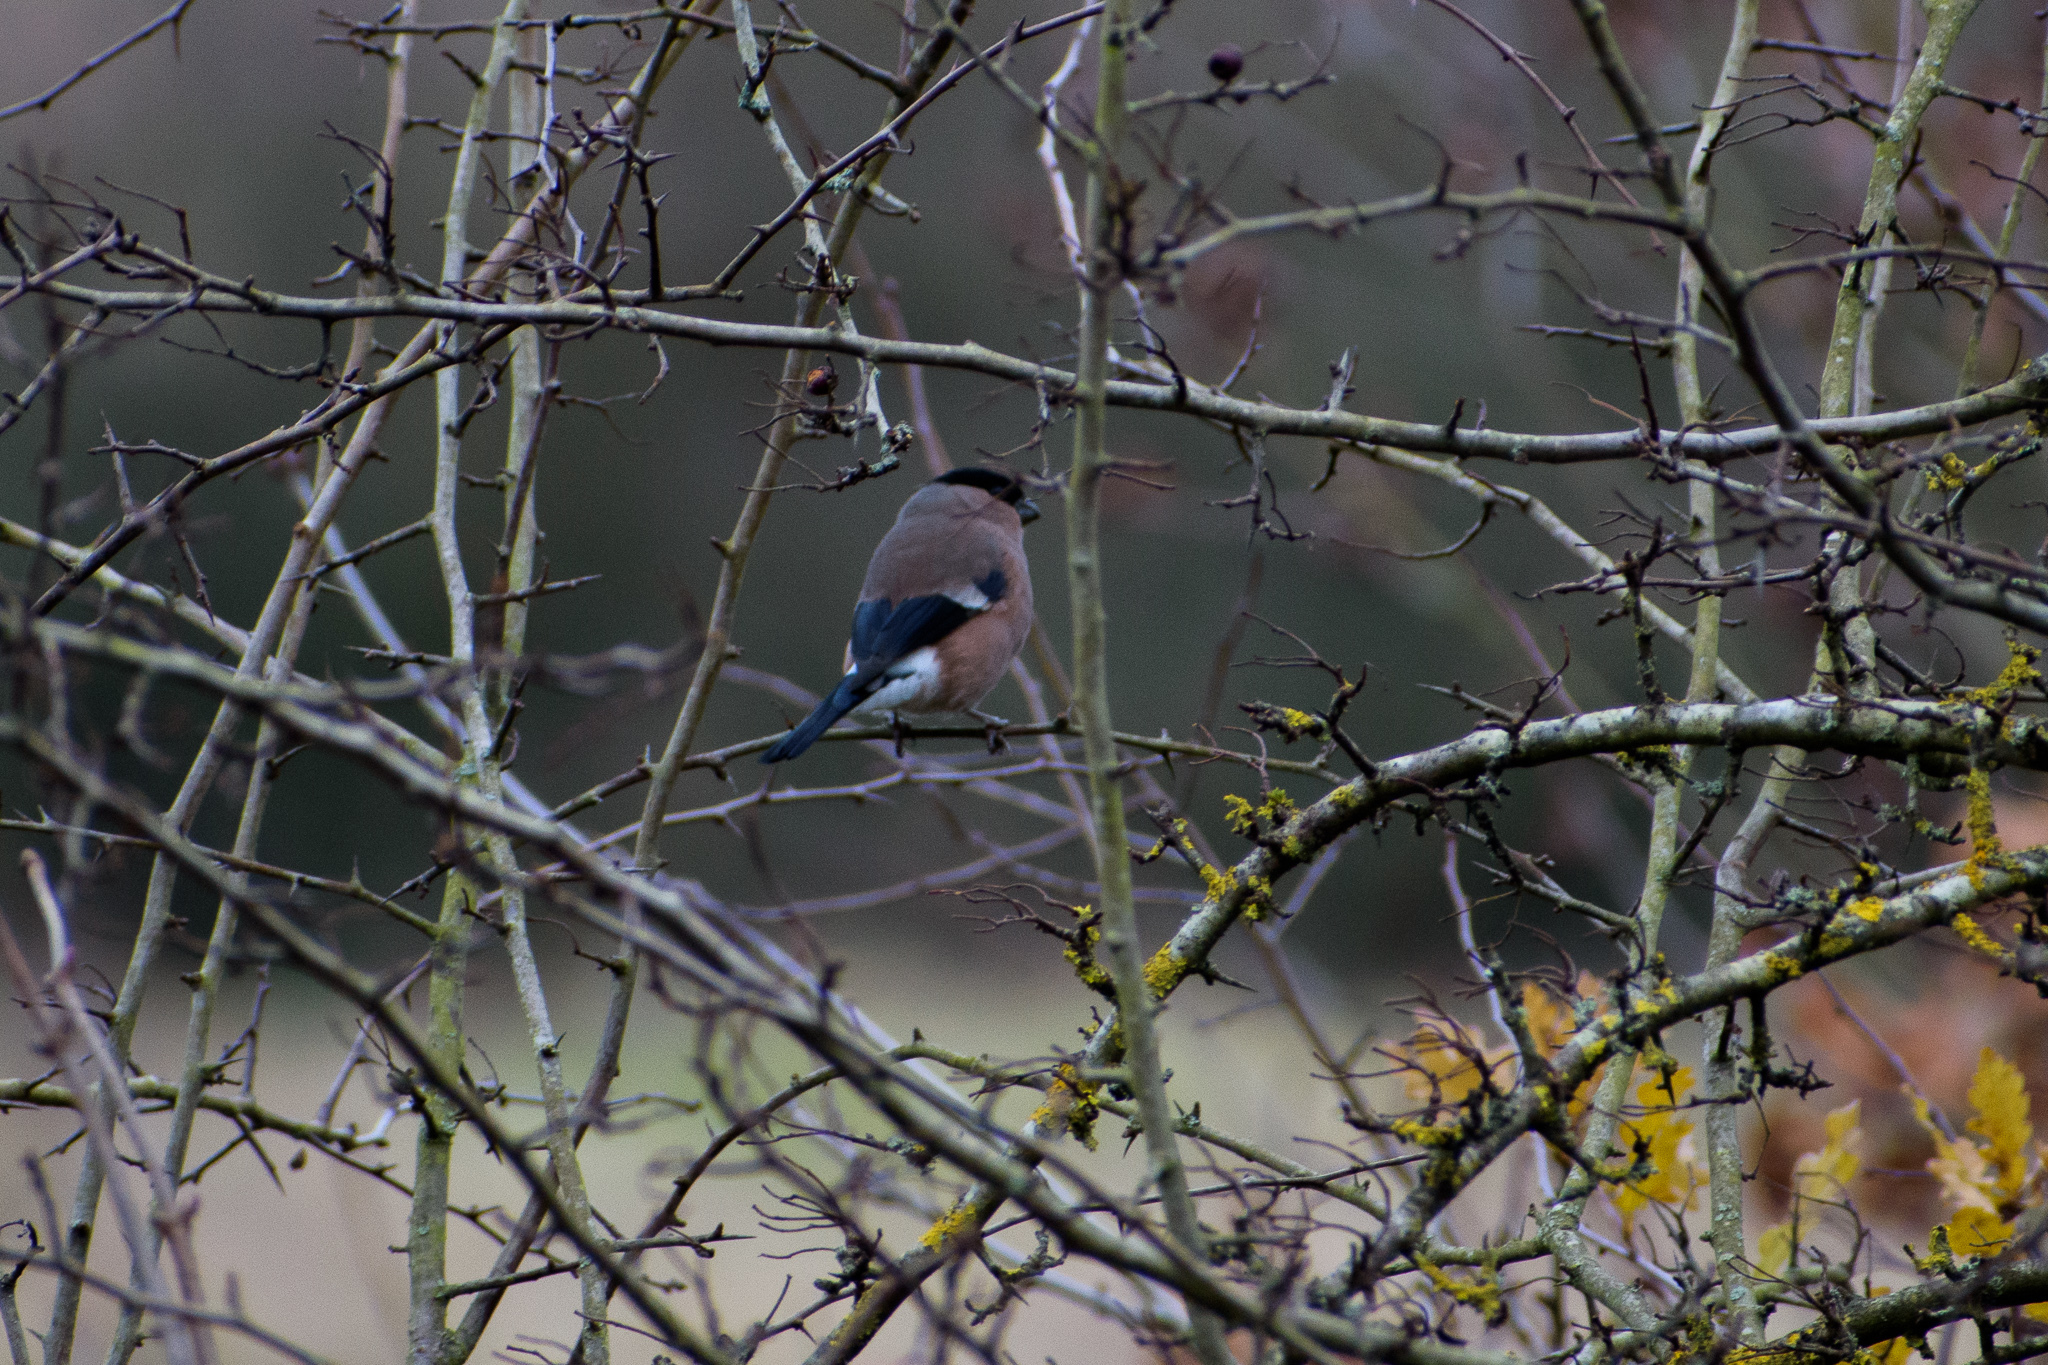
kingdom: Animalia
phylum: Chordata
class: Aves
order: Passeriformes
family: Fringillidae
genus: Pyrrhula
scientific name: Pyrrhula pyrrhula
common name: Eurasian bullfinch
